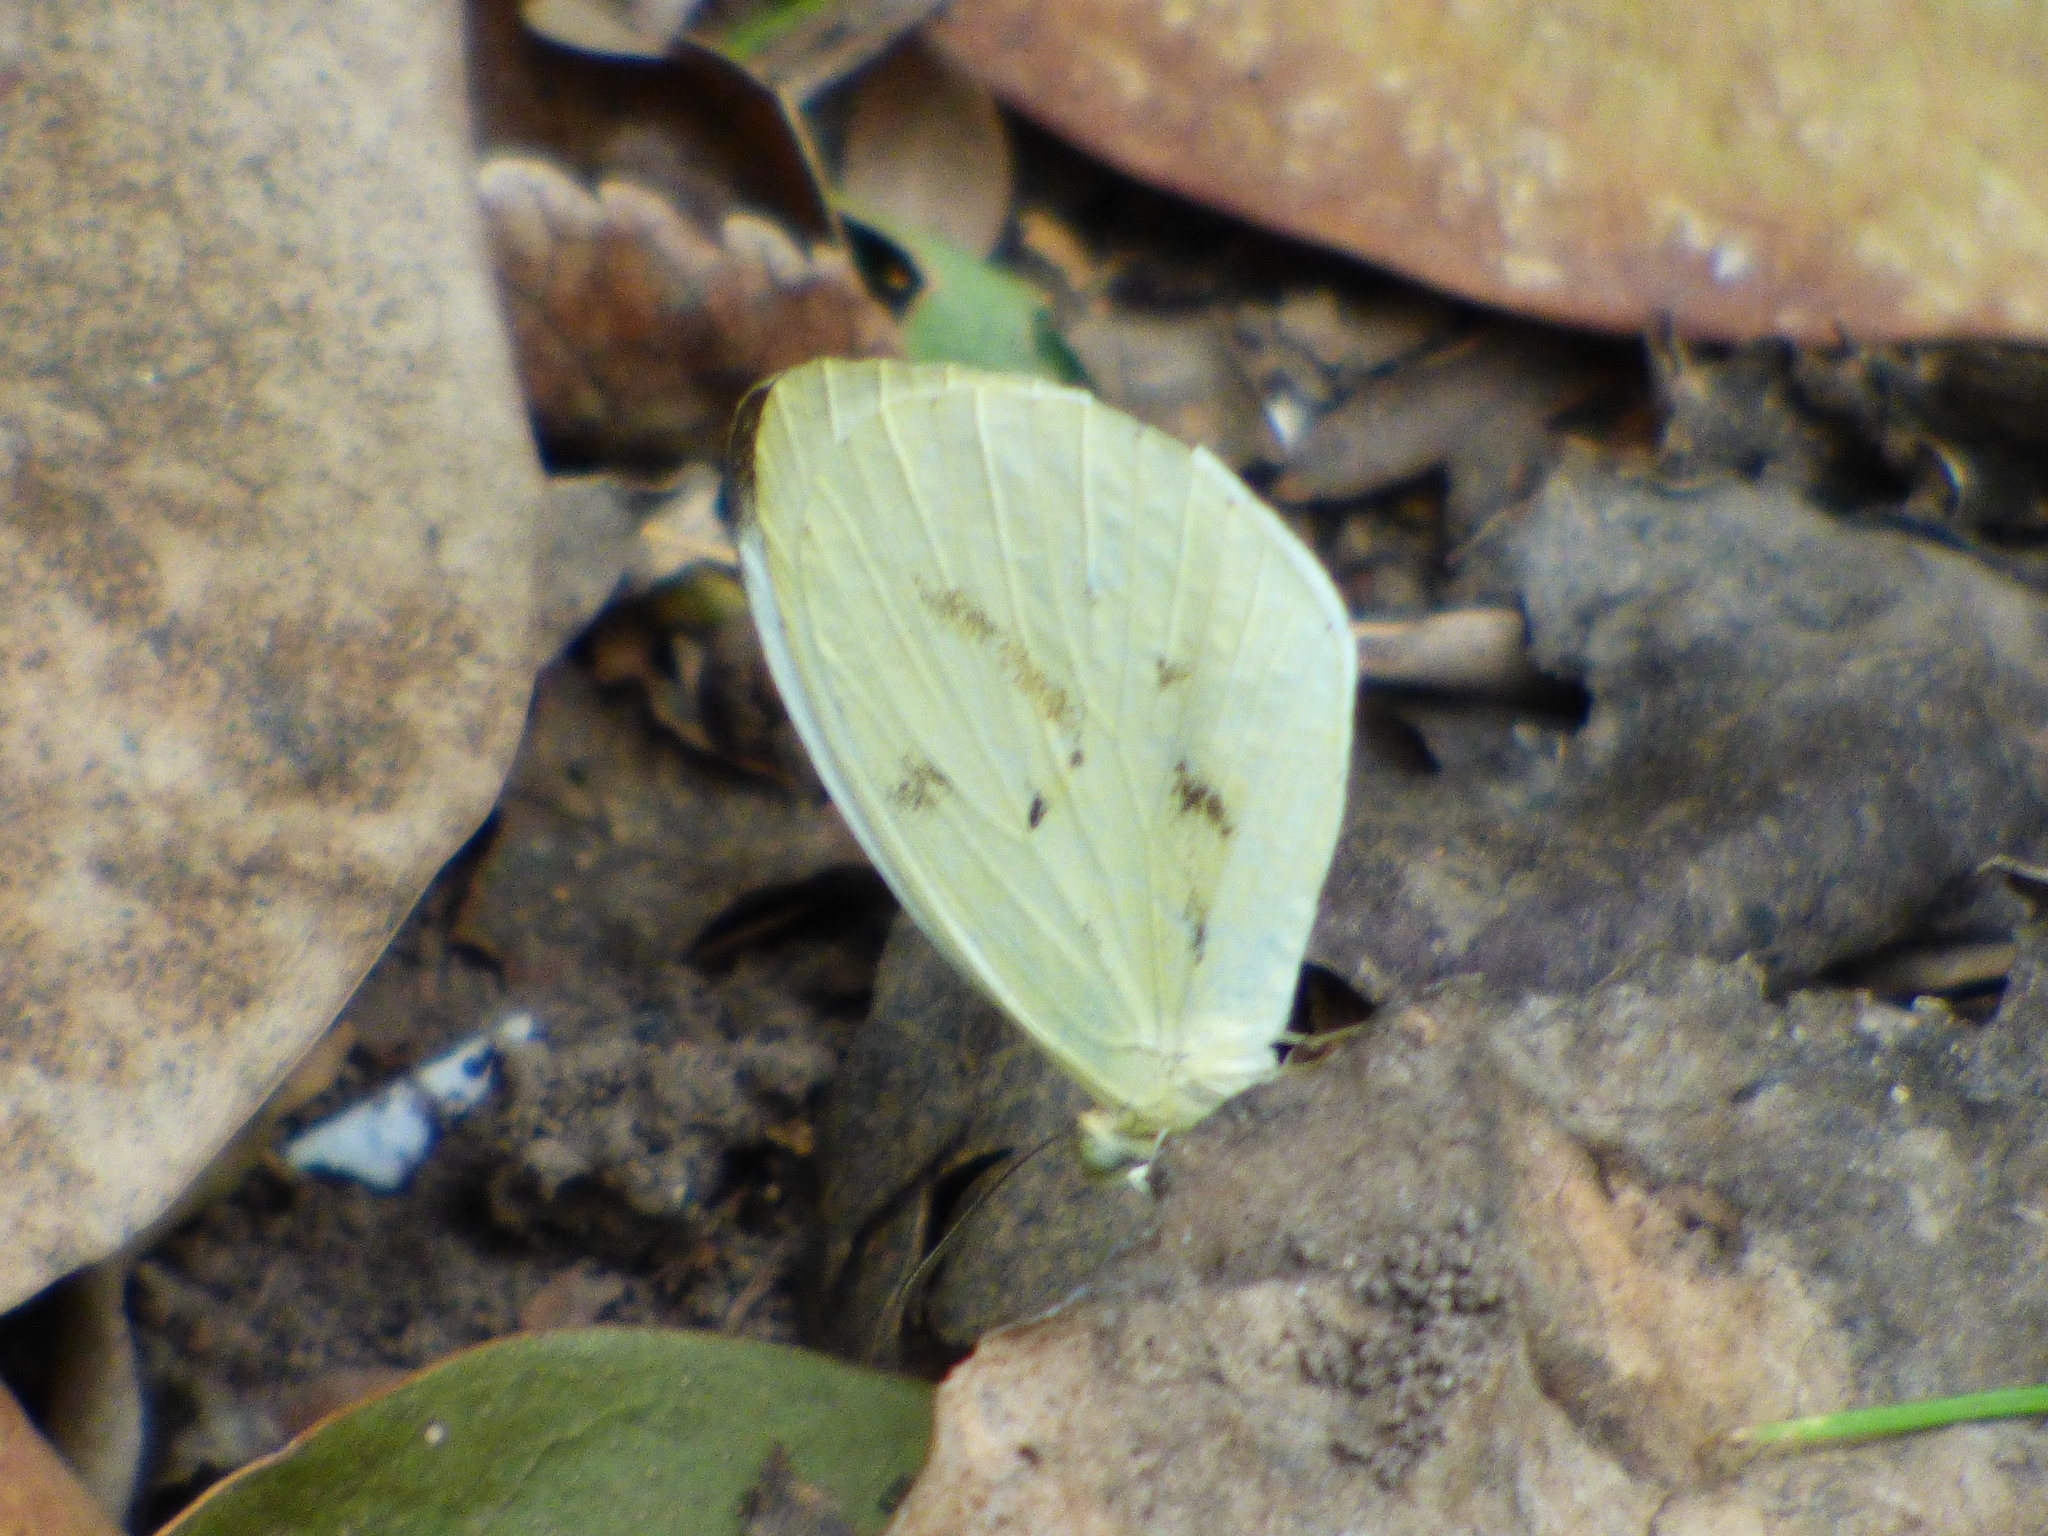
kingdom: Animalia
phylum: Arthropoda
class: Insecta
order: Lepidoptera
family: Pieridae
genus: Abaeis
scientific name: Abaeis albula
